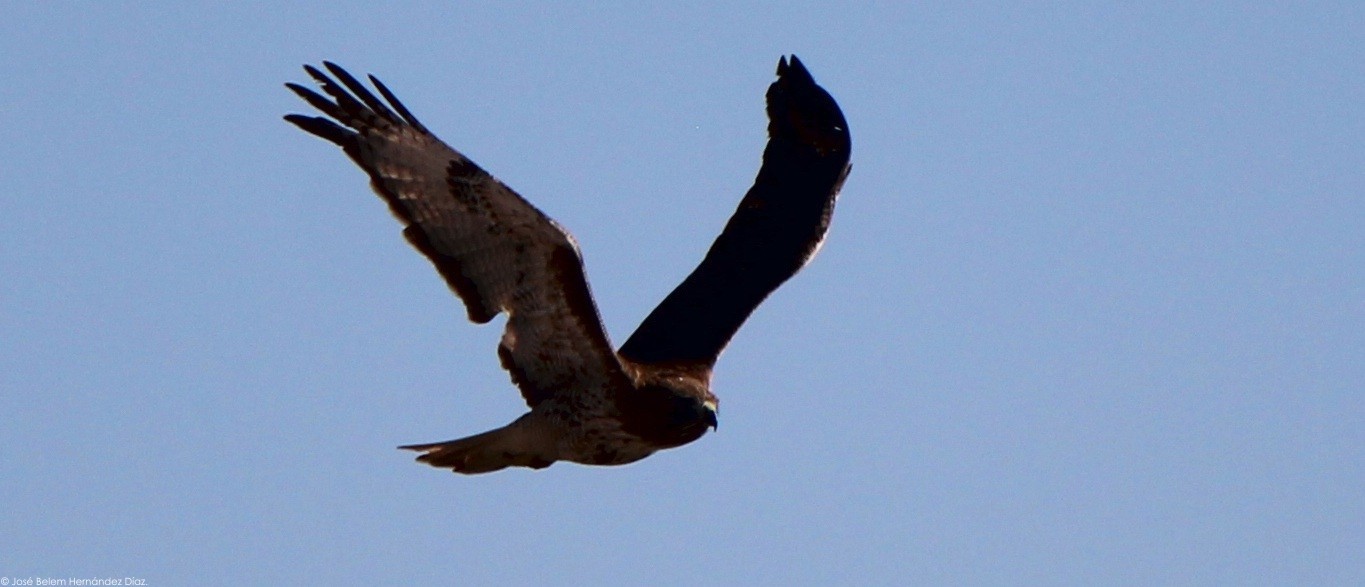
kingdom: Animalia
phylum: Chordata
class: Aves
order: Accipitriformes
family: Accipitridae
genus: Buteo
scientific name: Buteo jamaicensis
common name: Red-tailed hawk
